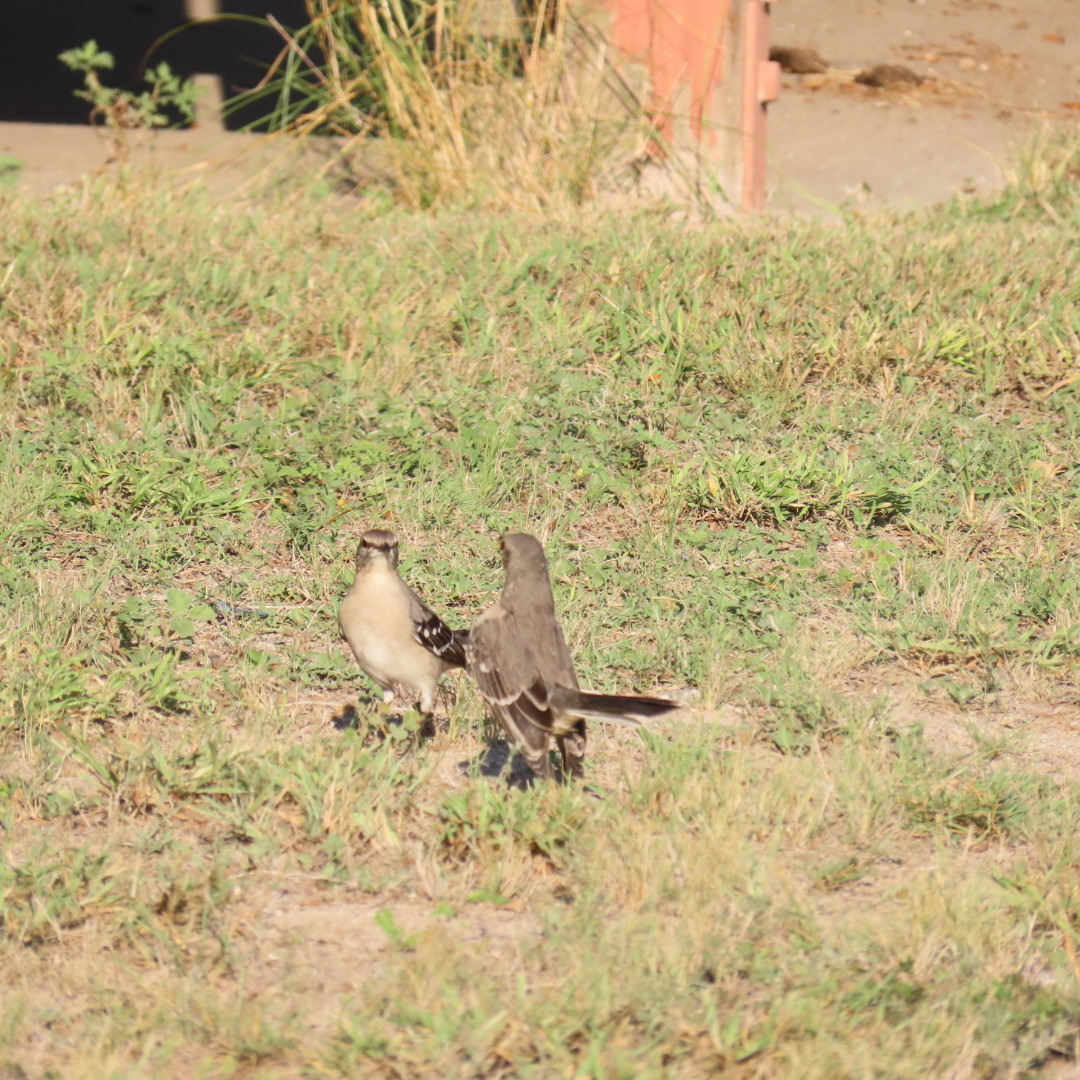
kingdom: Animalia
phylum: Chordata
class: Aves
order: Passeriformes
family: Mimidae
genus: Mimus
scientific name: Mimus polyglottos
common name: Northern mockingbird
